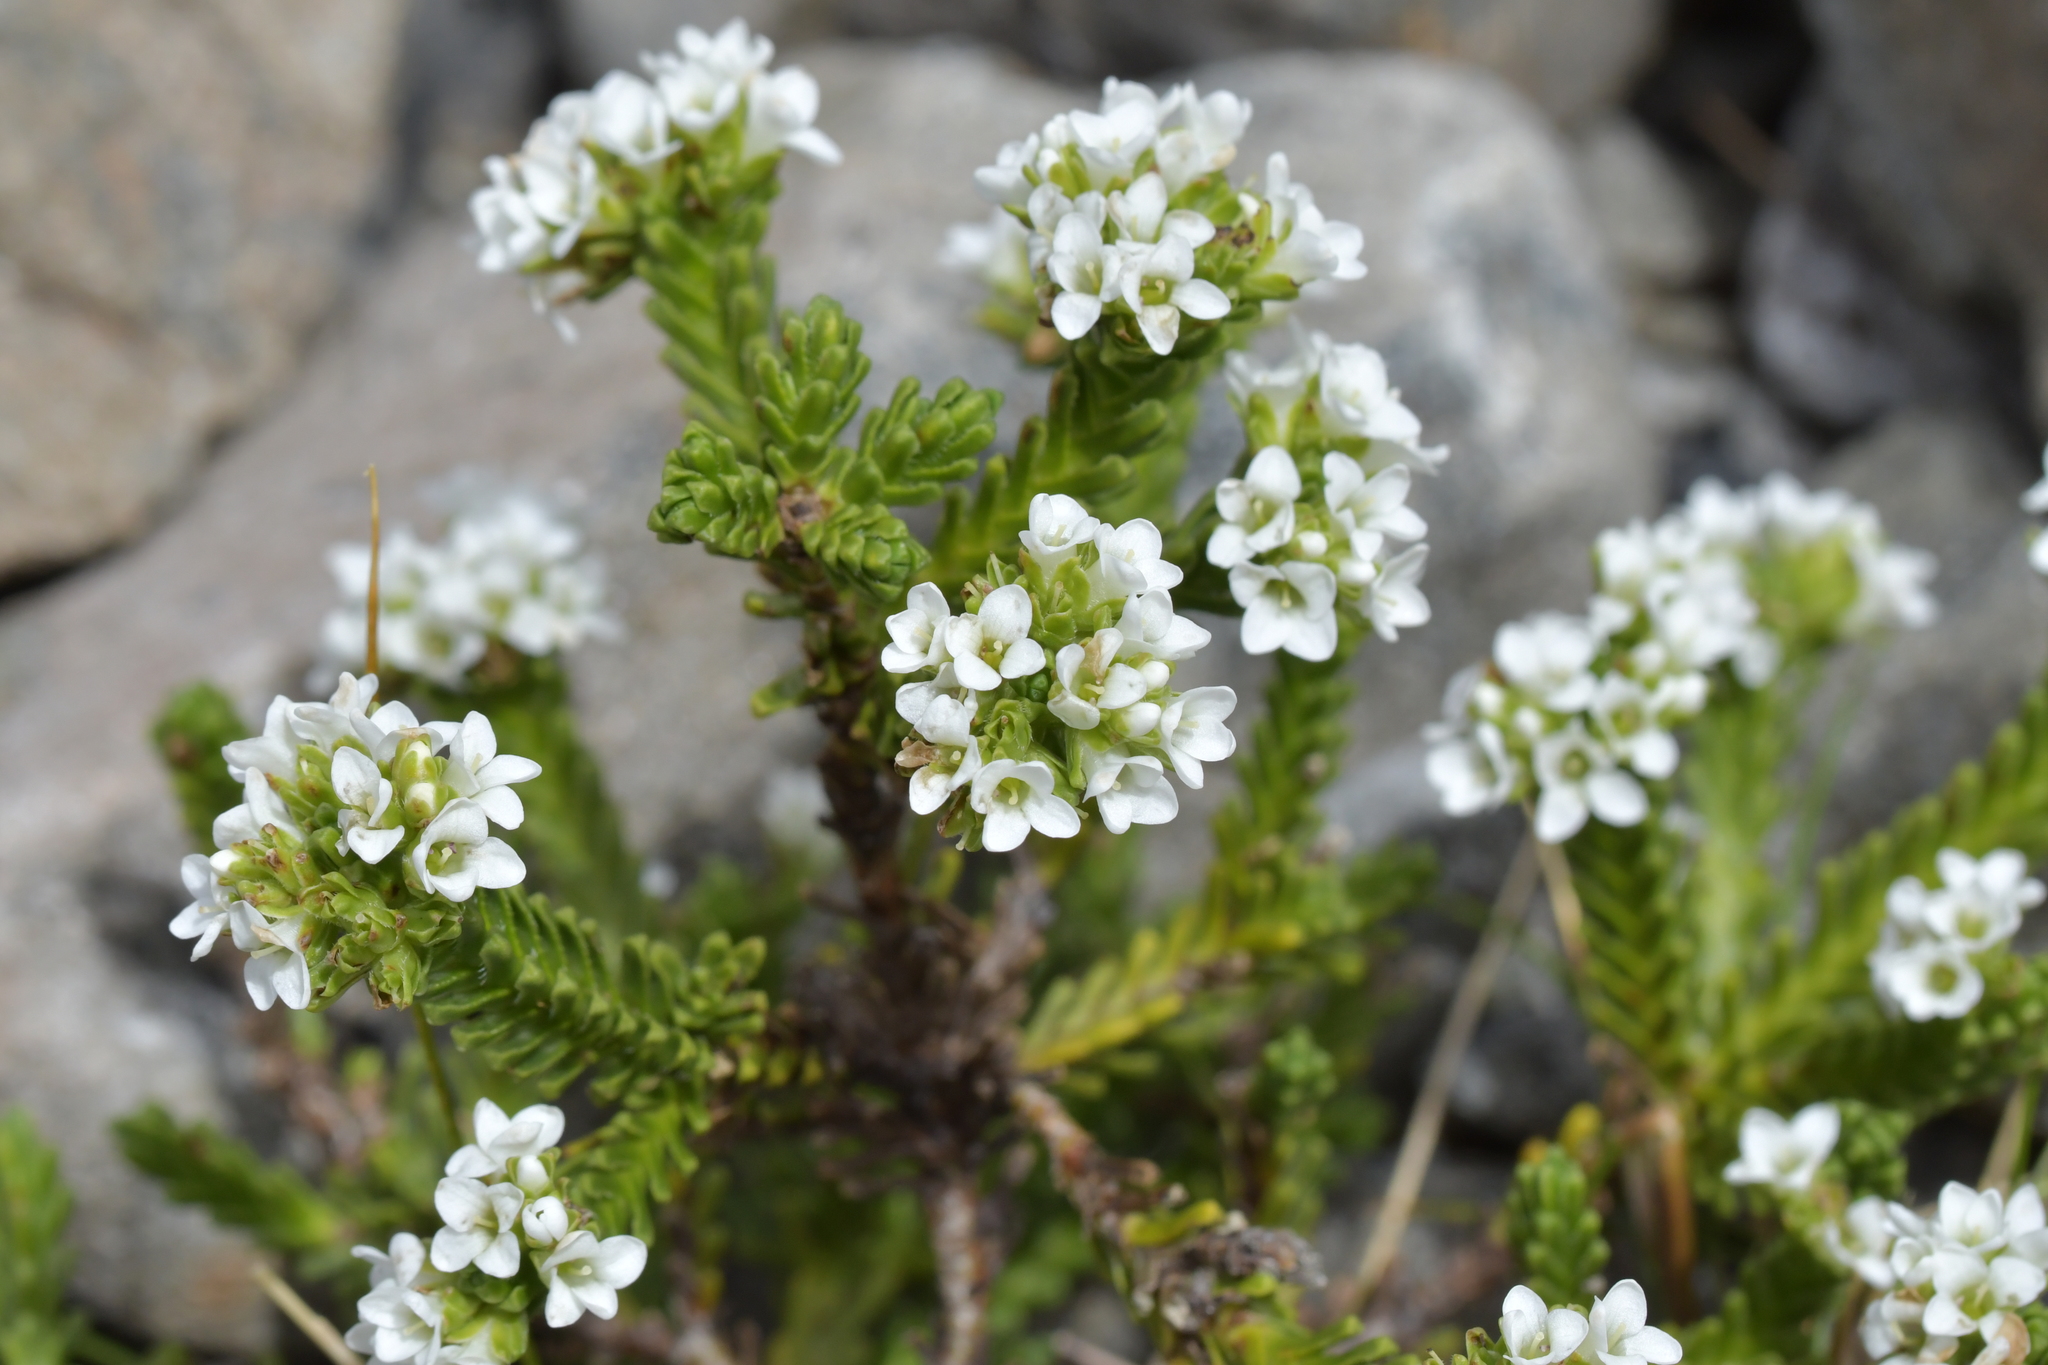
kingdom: Plantae
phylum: Tracheophyta
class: Magnoliopsida
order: Lamiales
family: Plantaginaceae
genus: Veronica
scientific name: Veronica hookeri
